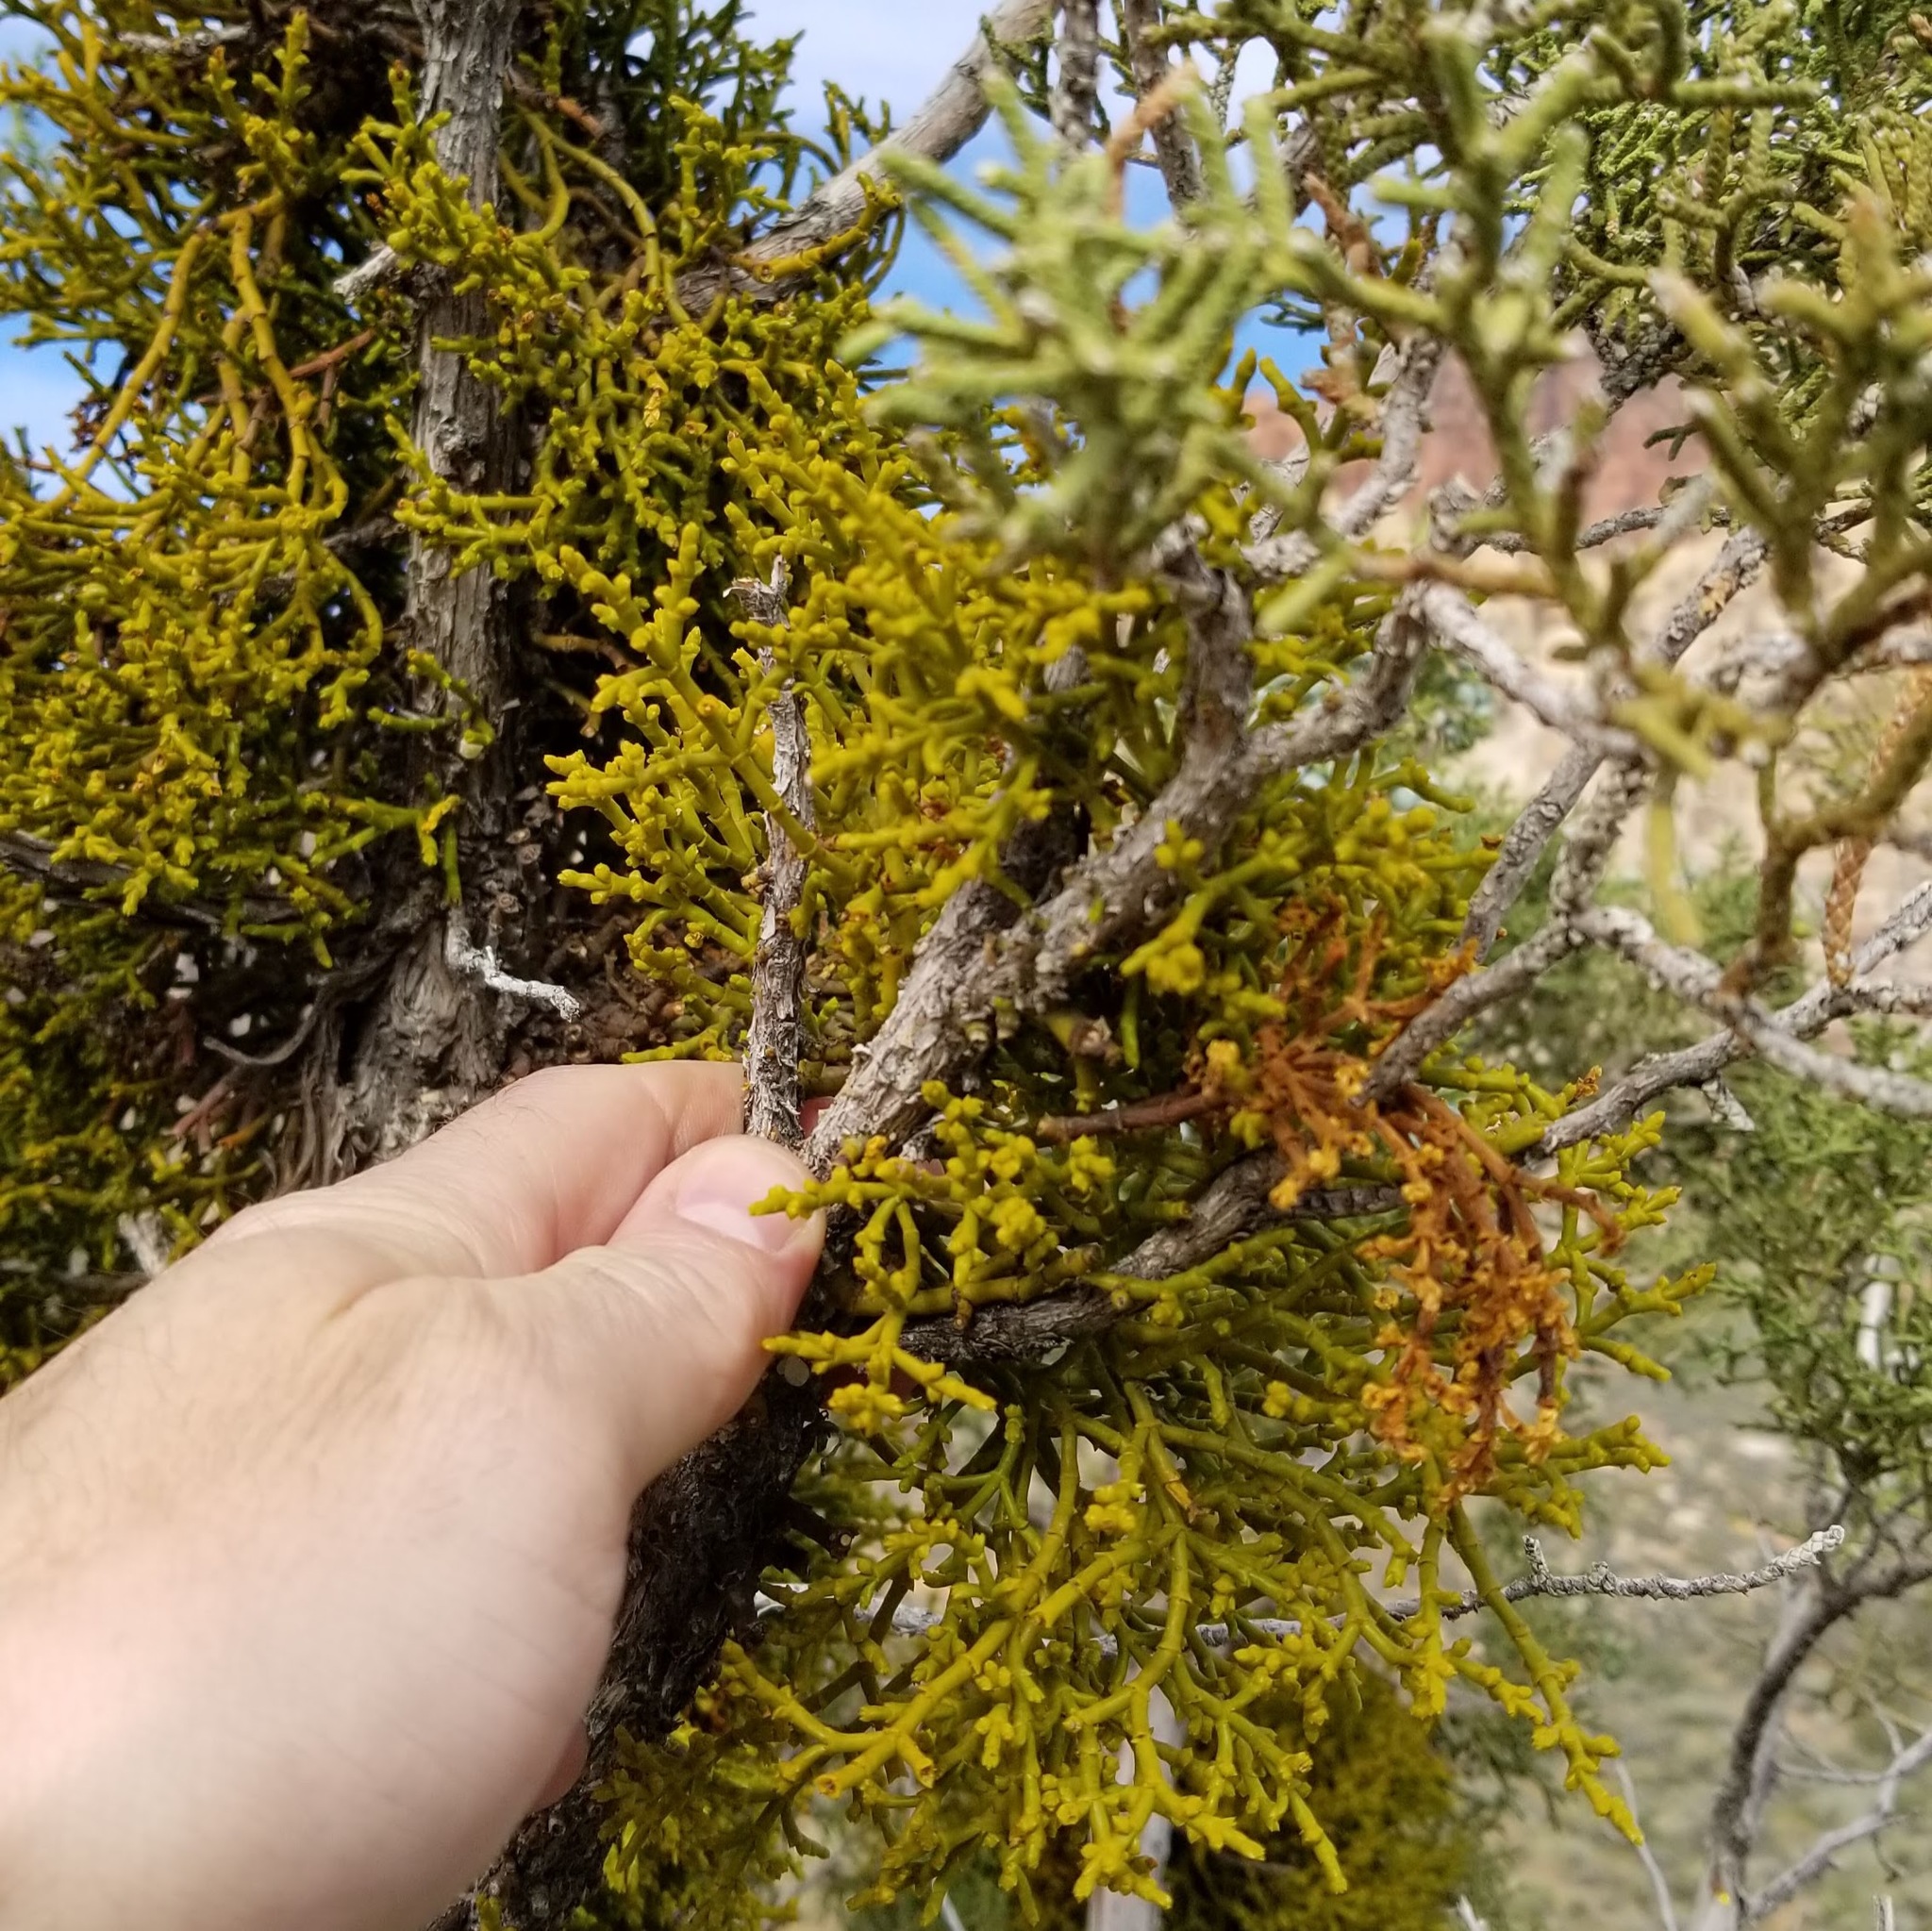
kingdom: Plantae
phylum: Tracheophyta
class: Magnoliopsida
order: Santalales
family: Viscaceae
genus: Phoradendron
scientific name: Phoradendron juniperinum
